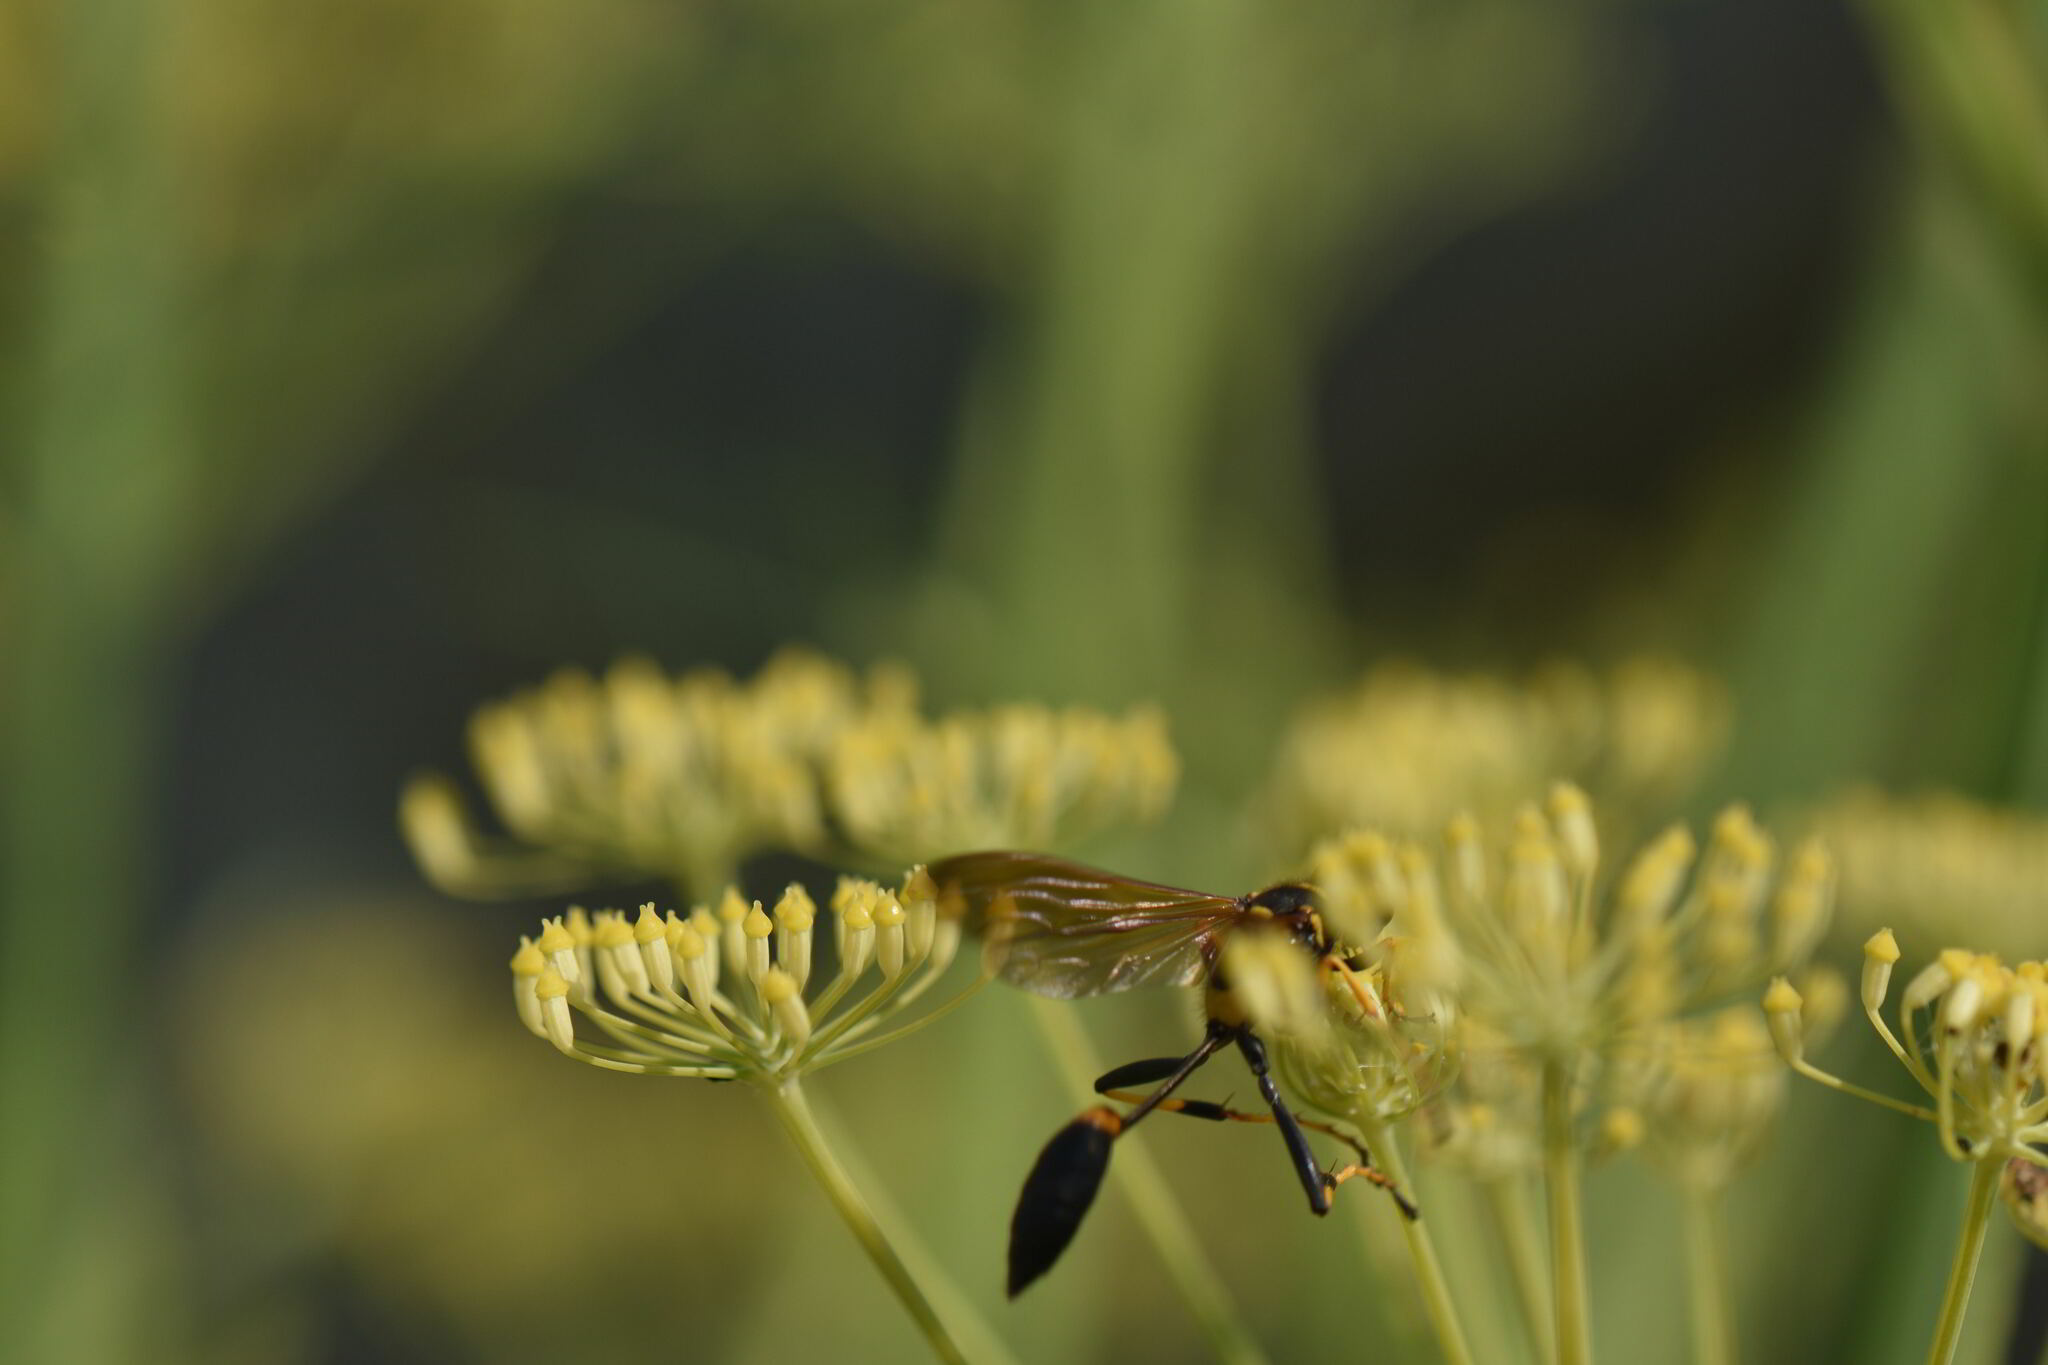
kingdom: Animalia
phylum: Arthropoda
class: Insecta
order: Hymenoptera
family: Sphecidae
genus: Sceliphron
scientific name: Sceliphron caementarium
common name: Mud dauber
